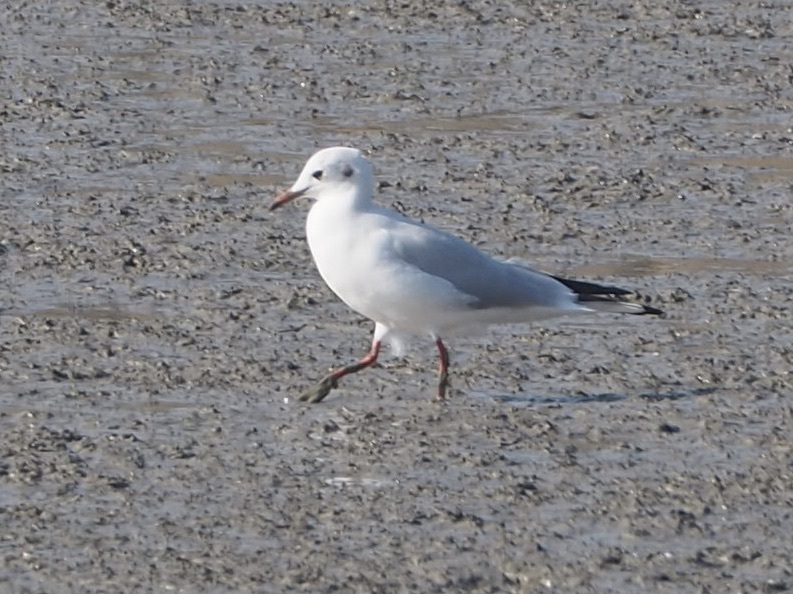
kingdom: Animalia
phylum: Chordata
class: Aves
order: Charadriiformes
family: Laridae
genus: Chroicocephalus
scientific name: Chroicocephalus ridibundus
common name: Black-headed gull
